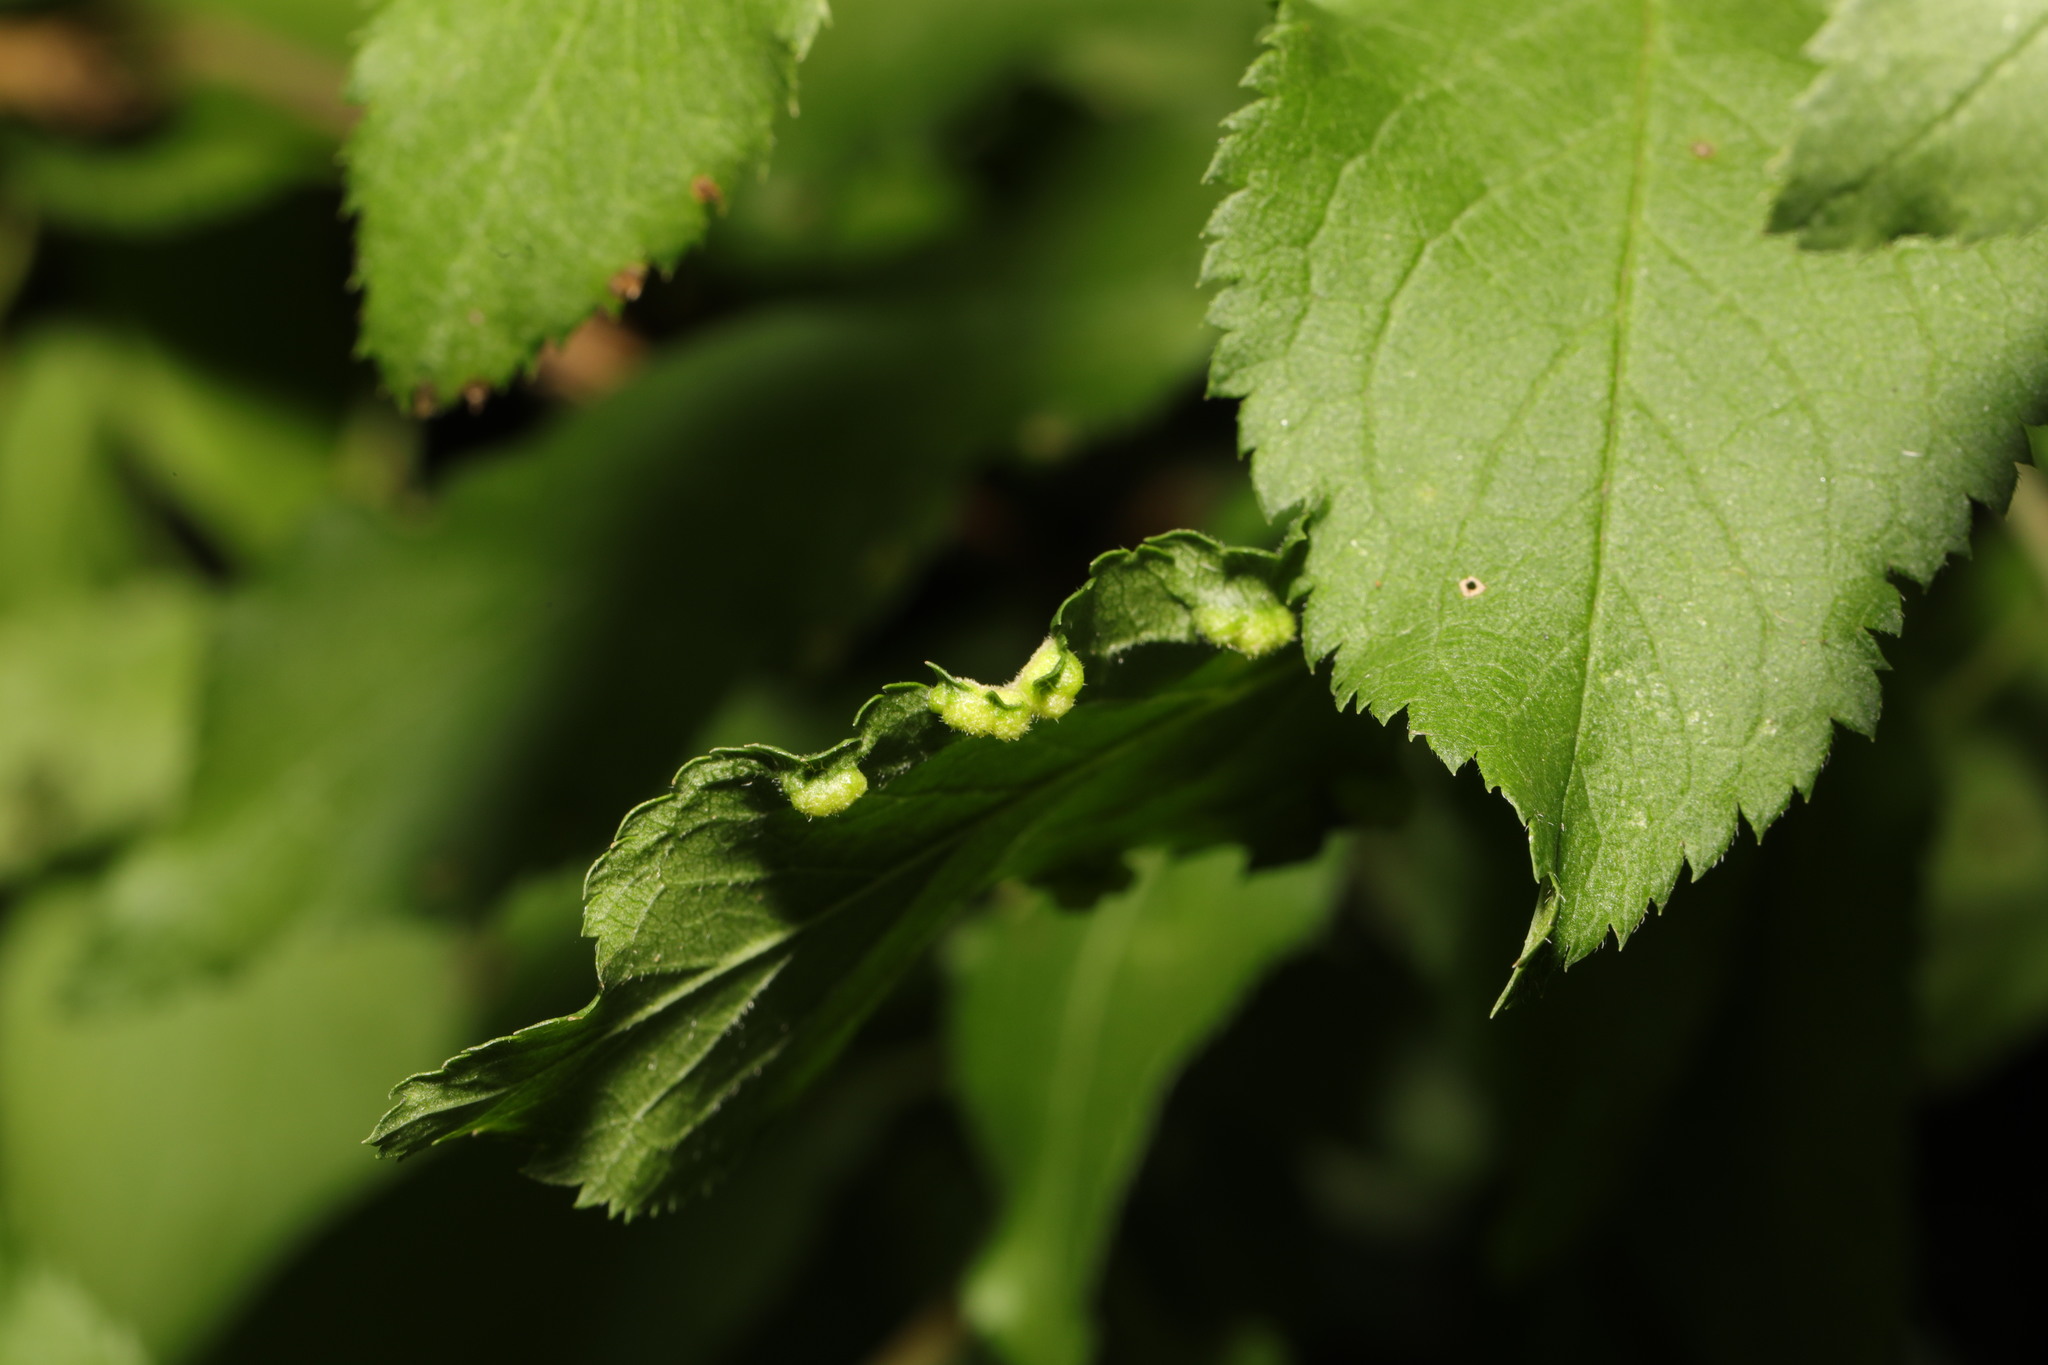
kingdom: Animalia
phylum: Arthropoda
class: Arachnida
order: Trombidiformes
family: Eriophyidae
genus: Eriophyes
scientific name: Eriophyes similis
